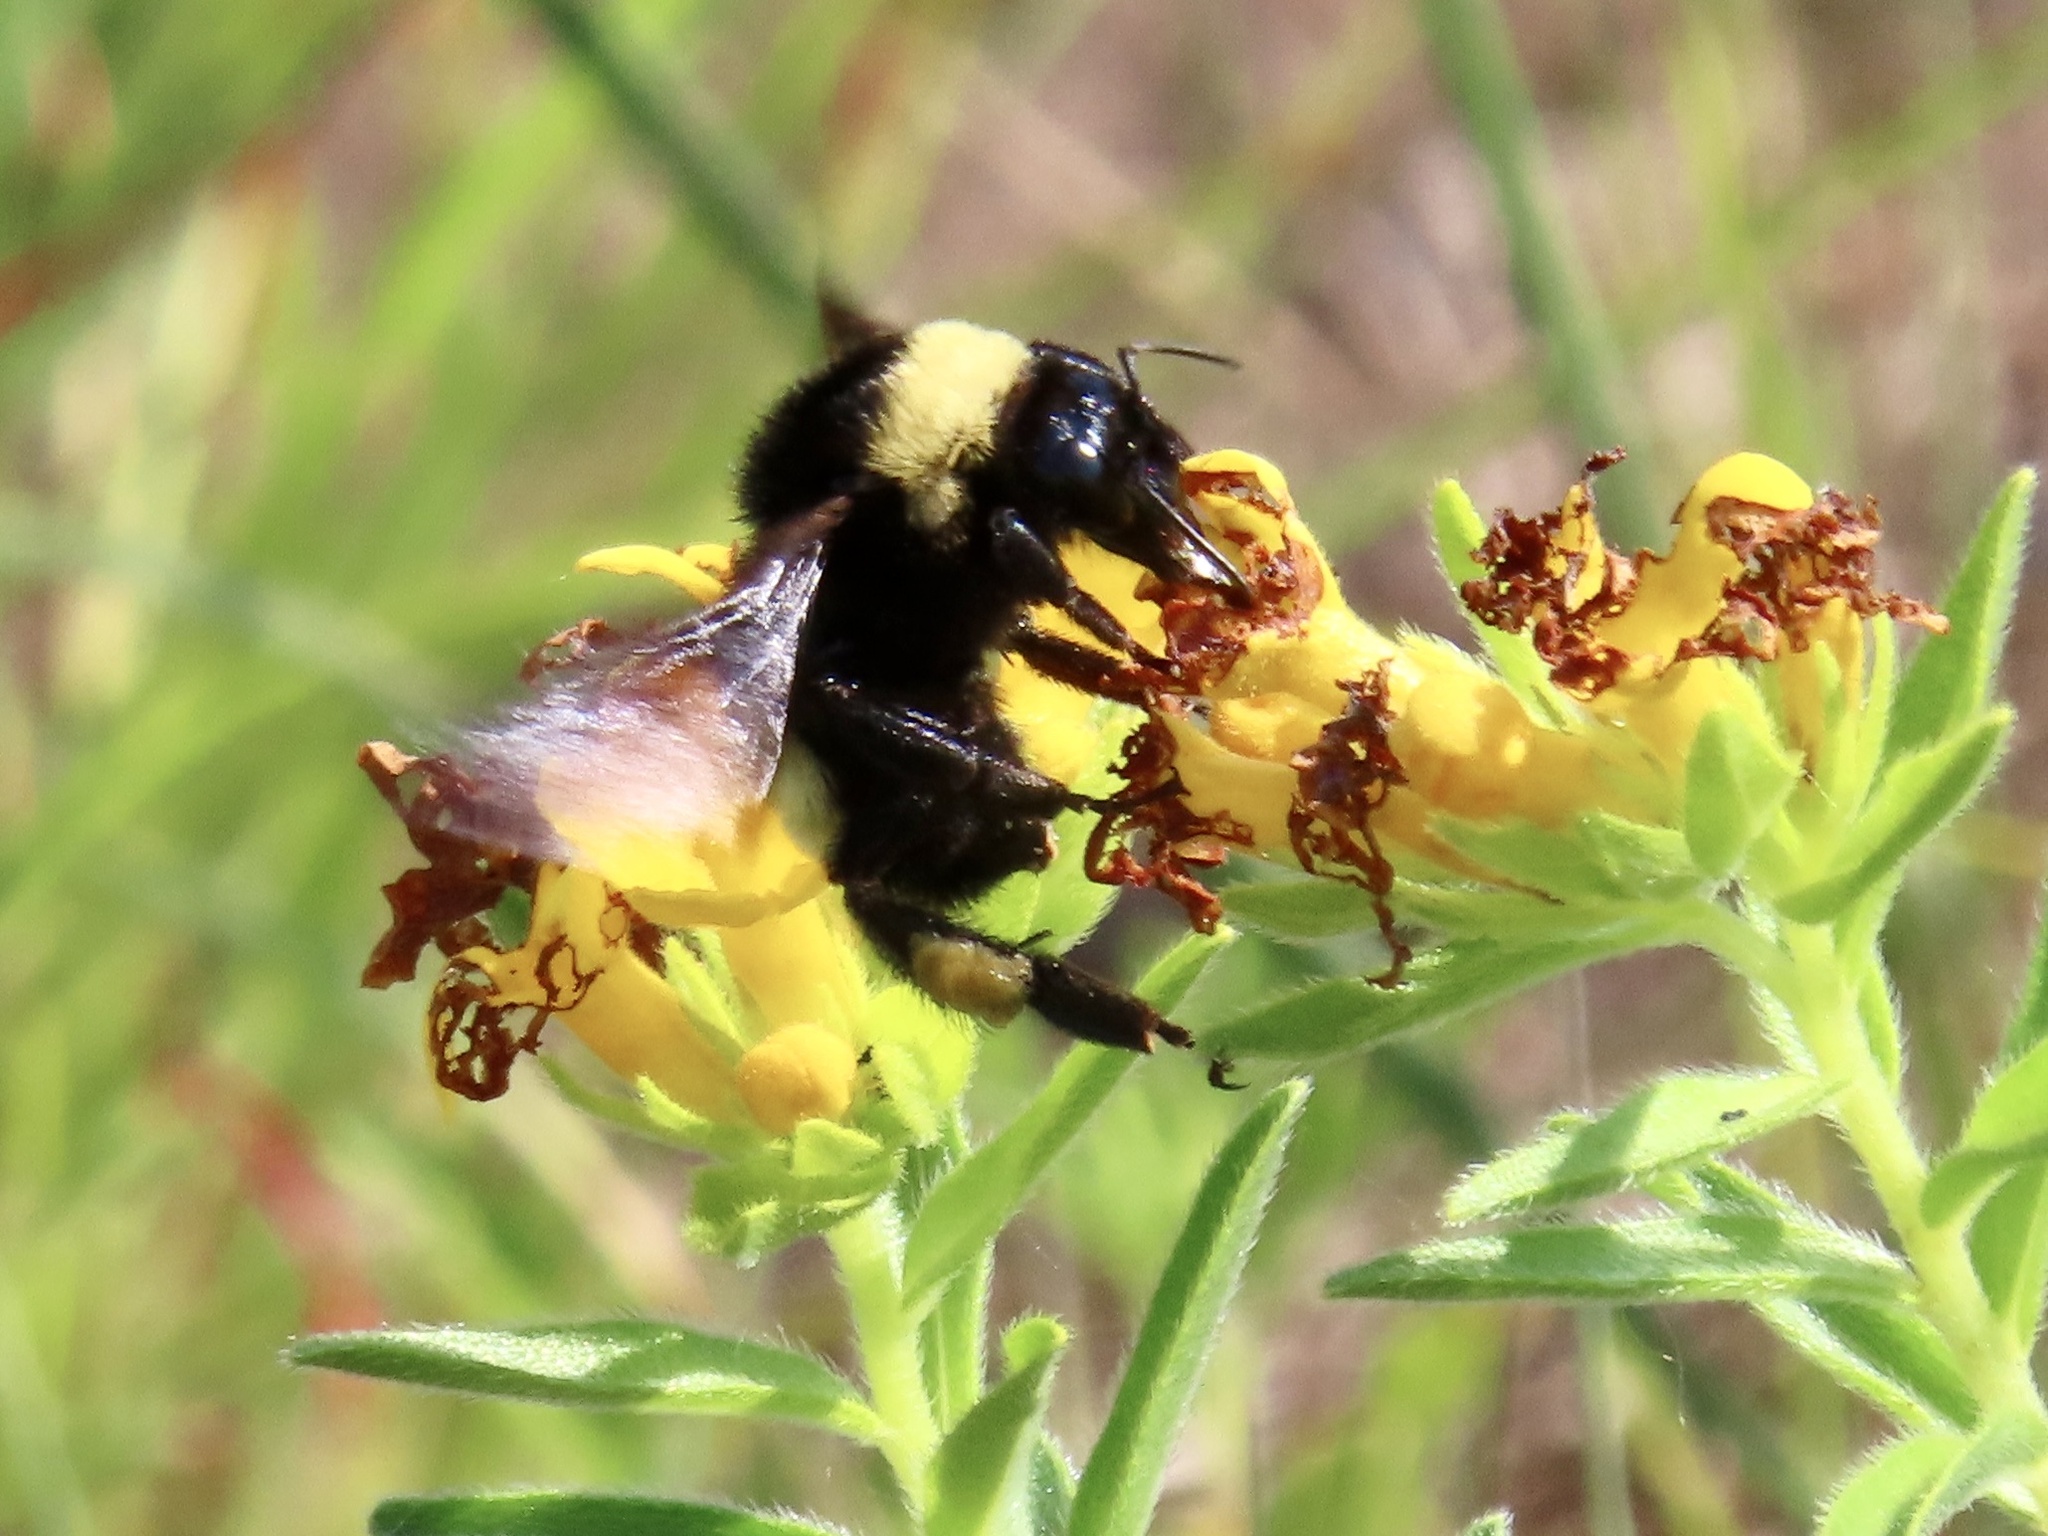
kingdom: Animalia
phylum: Arthropoda
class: Insecta
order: Hymenoptera
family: Apidae
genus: Bombus
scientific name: Bombus pensylvanicus
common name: Bumble bee
